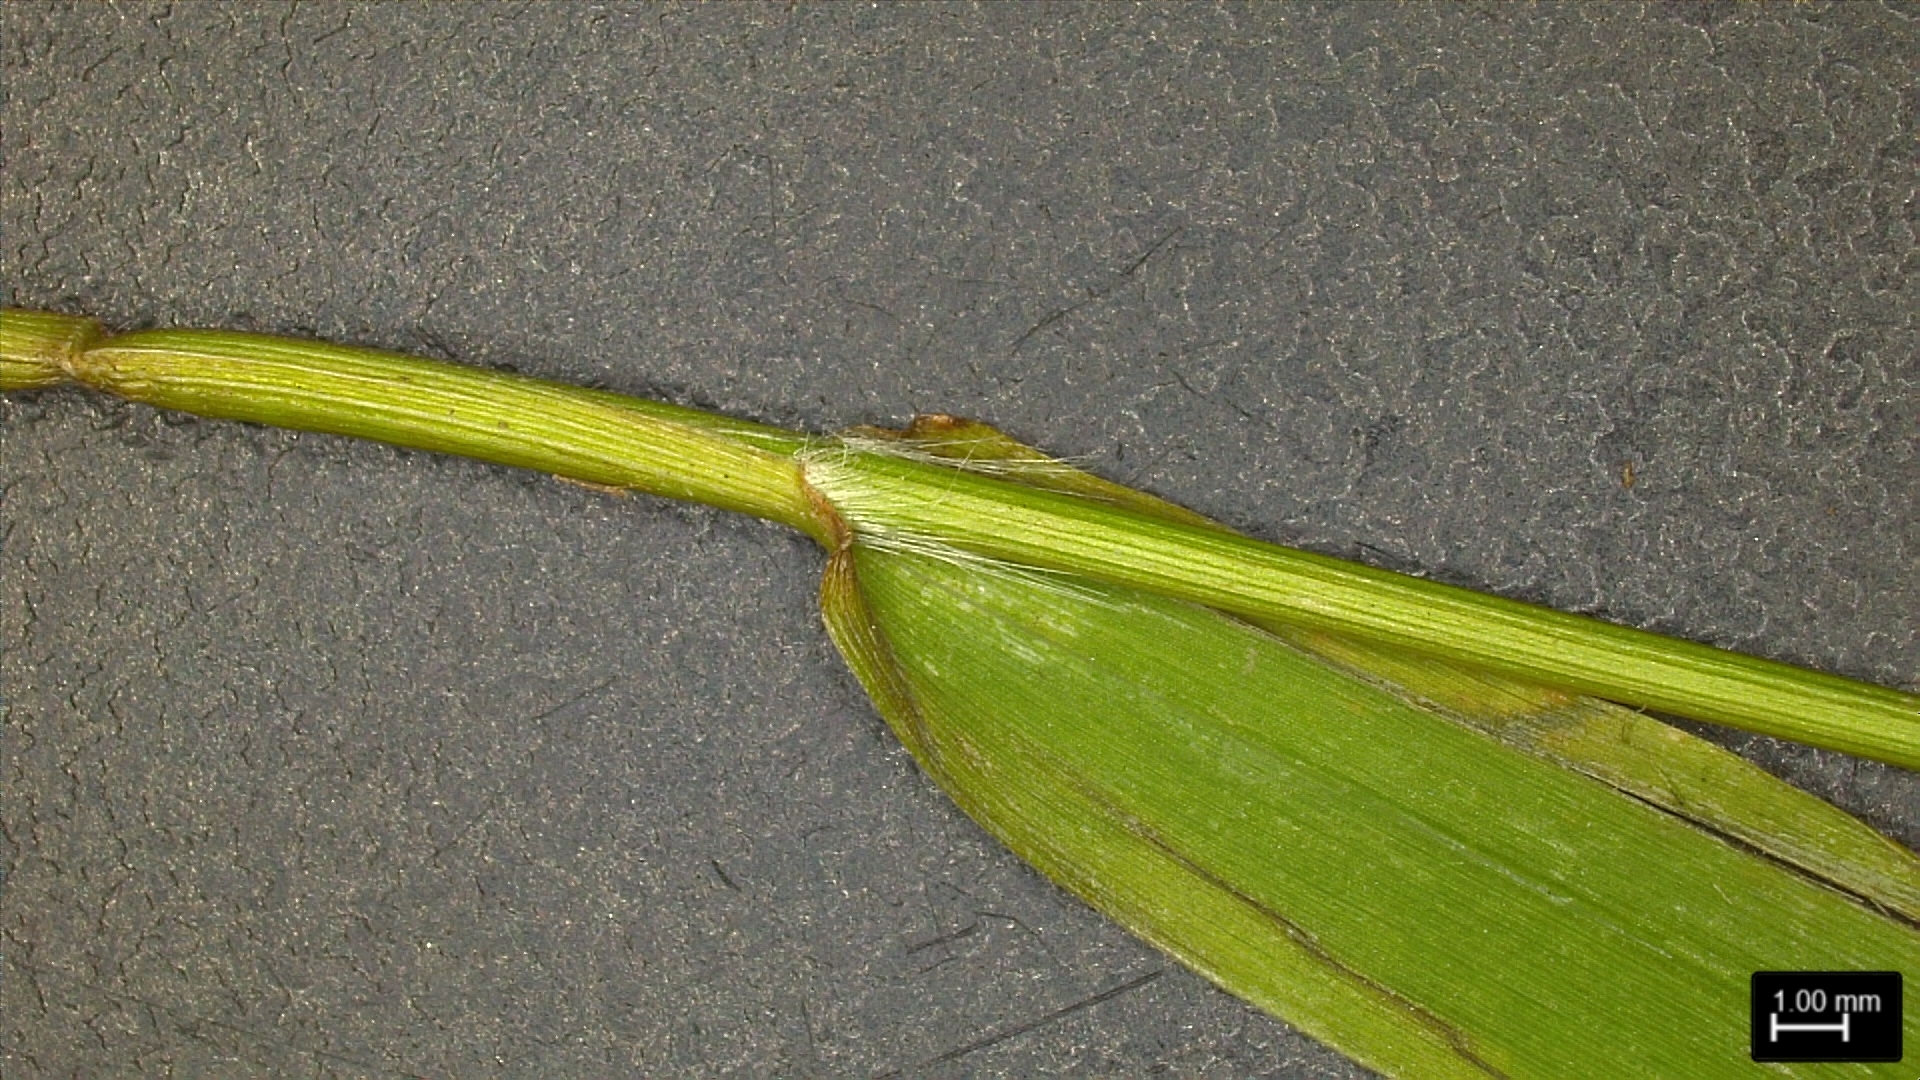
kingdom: Plantae
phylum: Tracheophyta
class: Liliopsida
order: Poales
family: Poaceae
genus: Dichanthelium
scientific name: Dichanthelium lindheimeri
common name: Lindheimer's panicgrass
